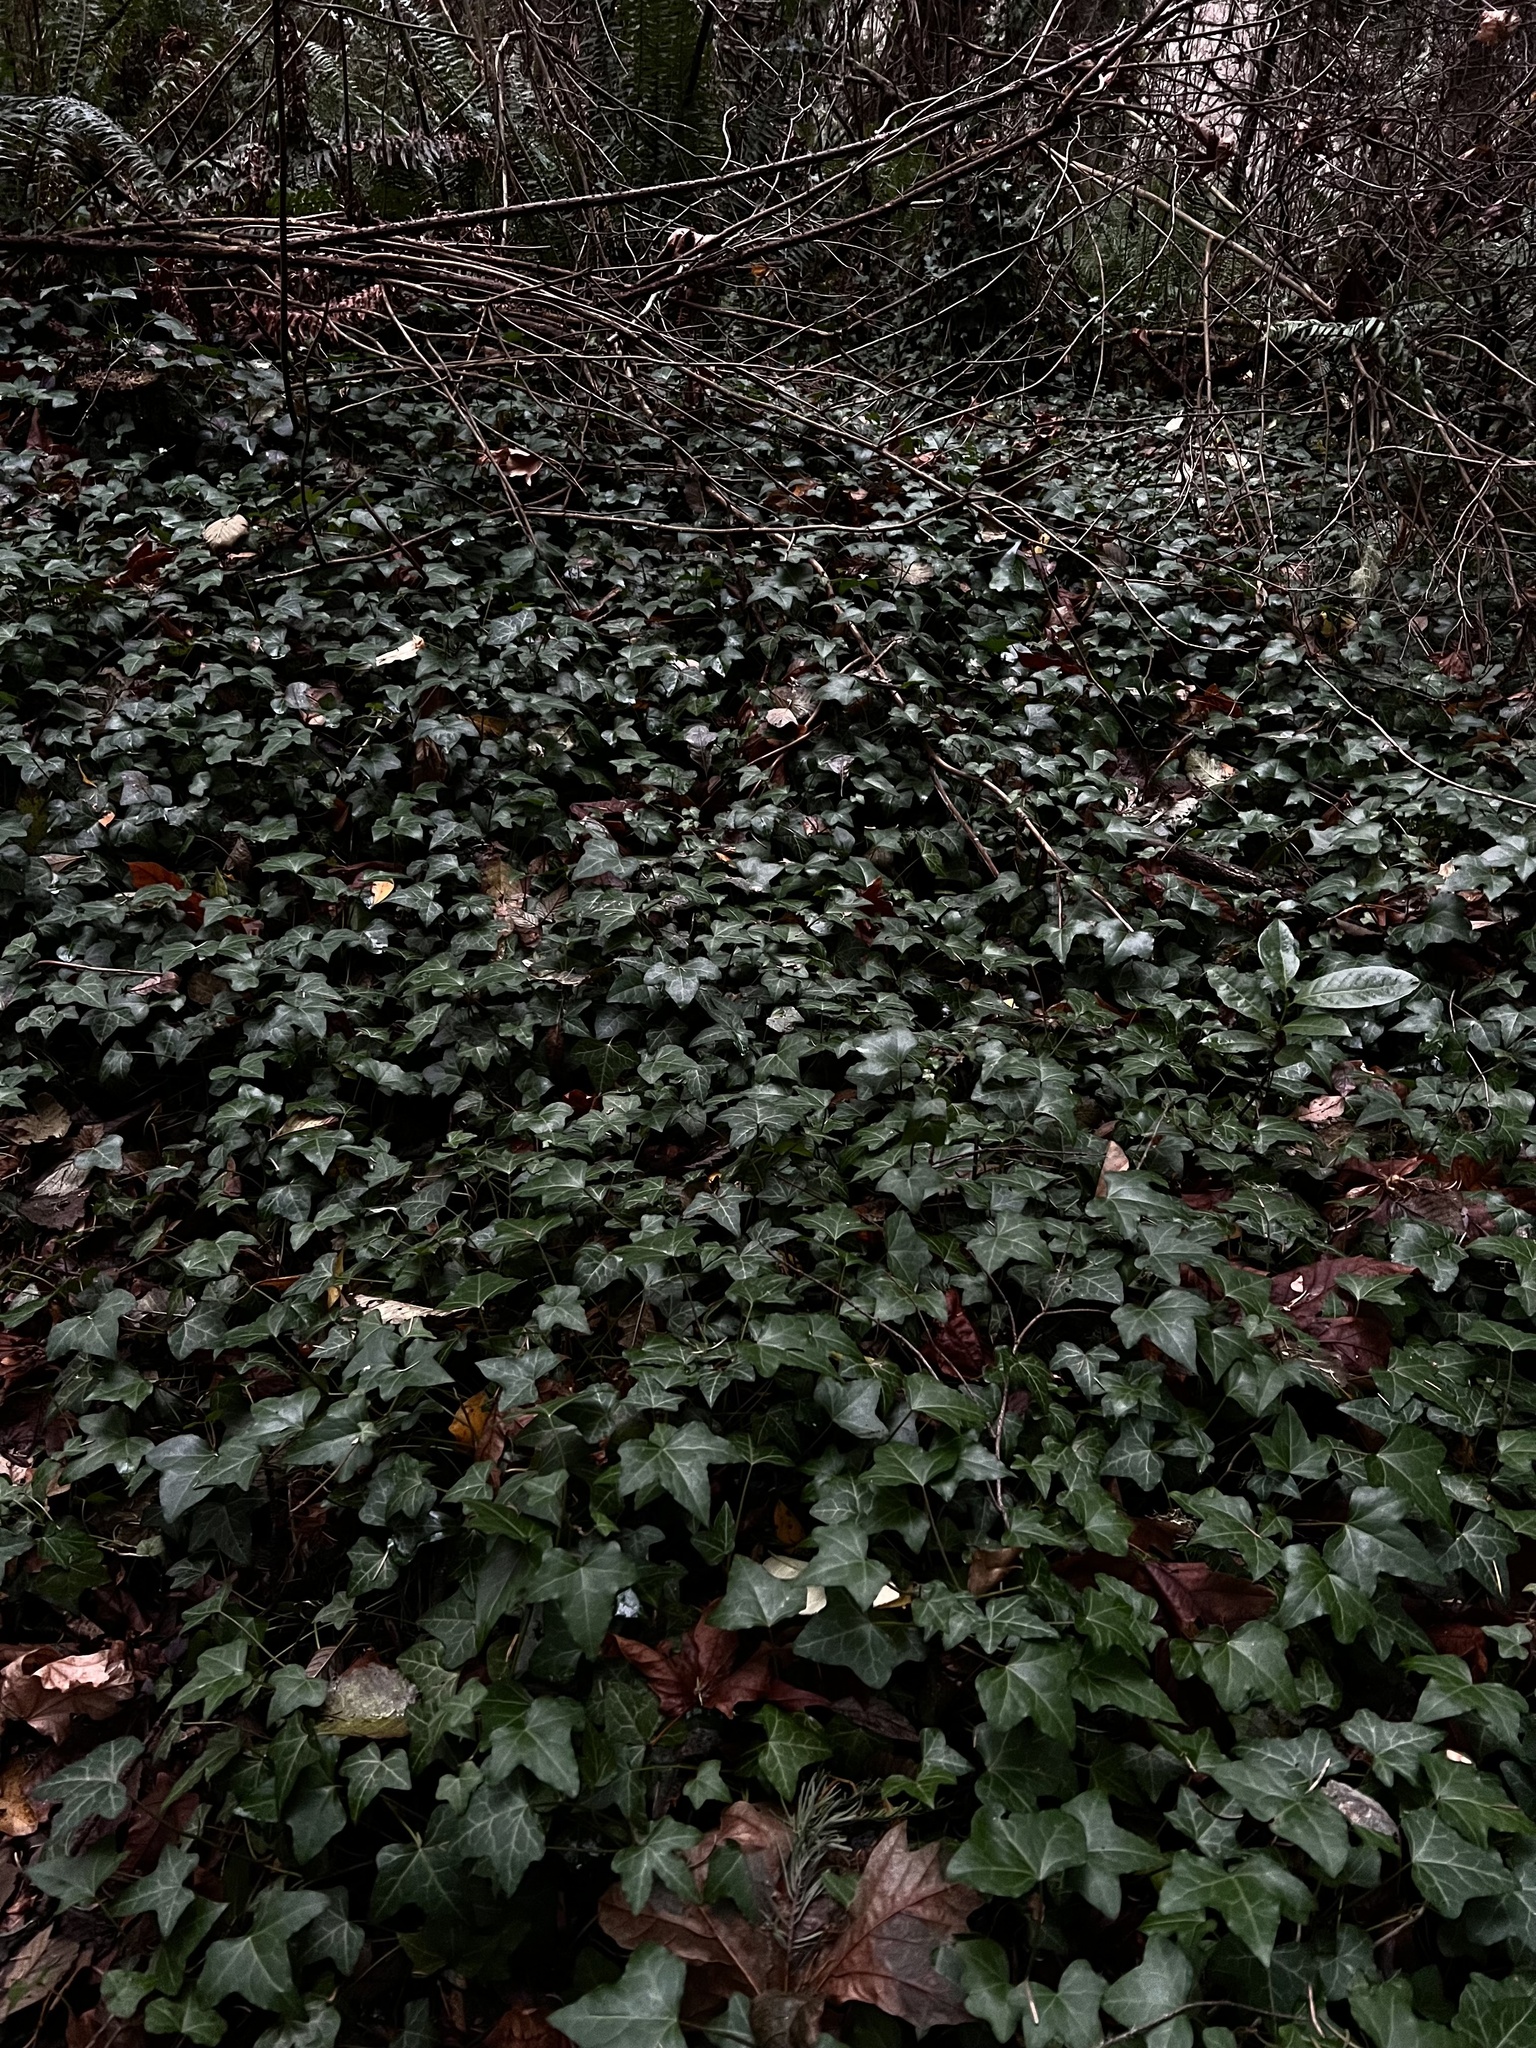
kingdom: Plantae
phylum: Tracheophyta
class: Magnoliopsida
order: Apiales
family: Araliaceae
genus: Hedera
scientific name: Hedera helix
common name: Ivy
